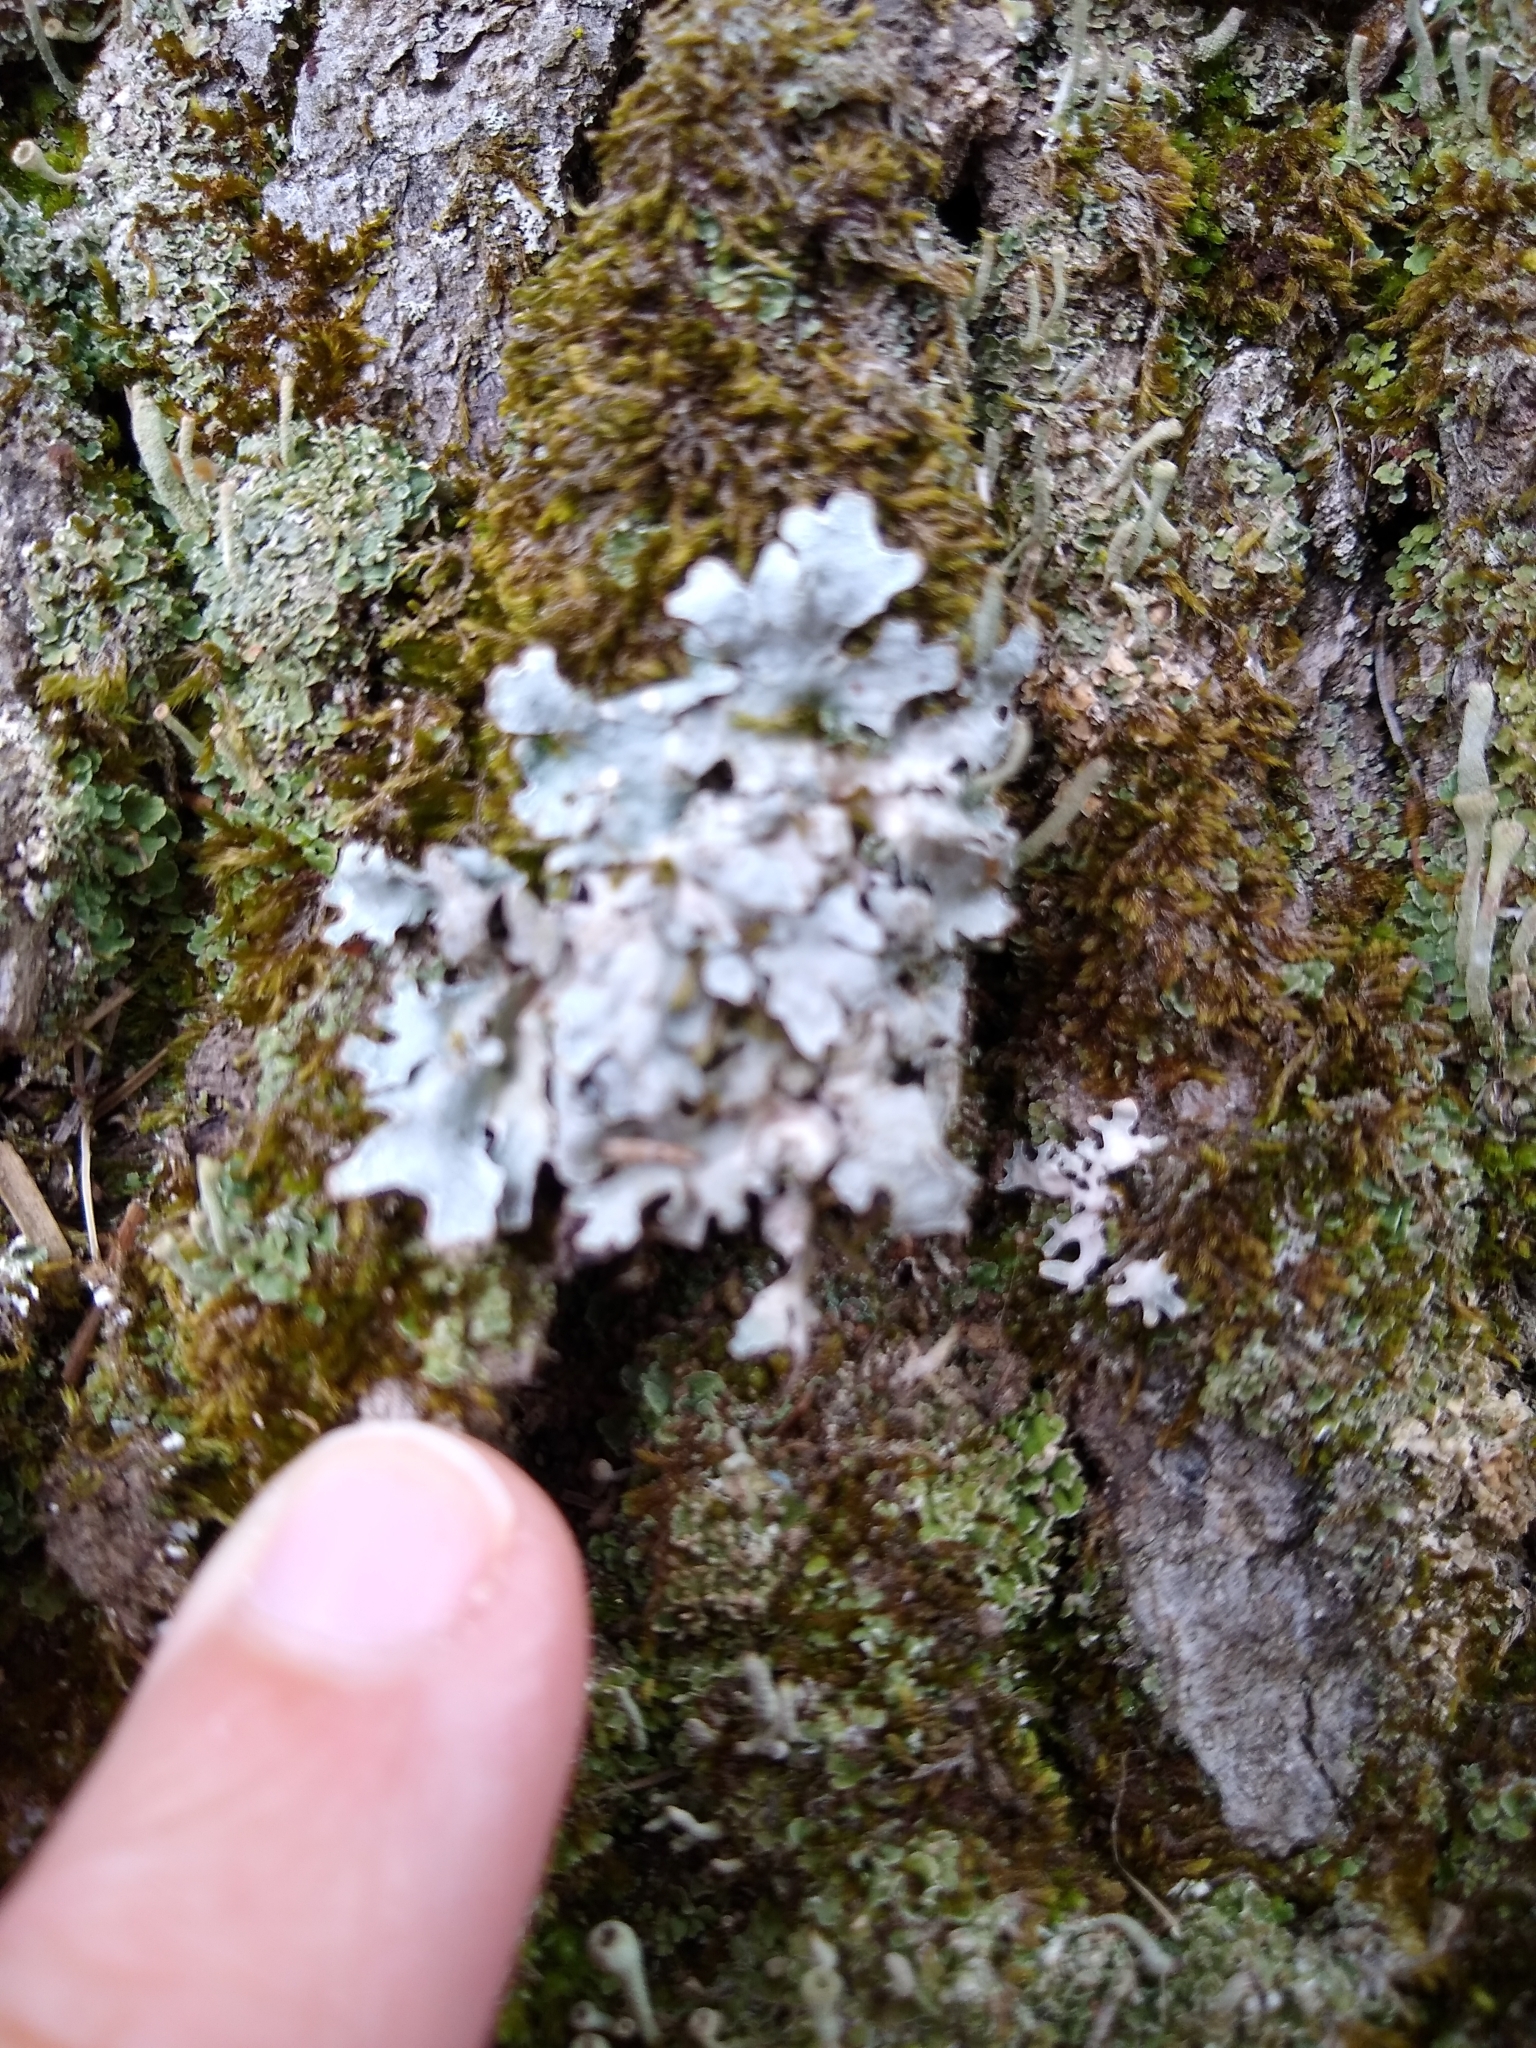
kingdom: Fungi
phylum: Ascomycota
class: Lecanoromycetes
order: Lecanorales
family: Parmeliaceae
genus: Parmelia
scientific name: Parmelia sulcata
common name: Netted shield lichen
